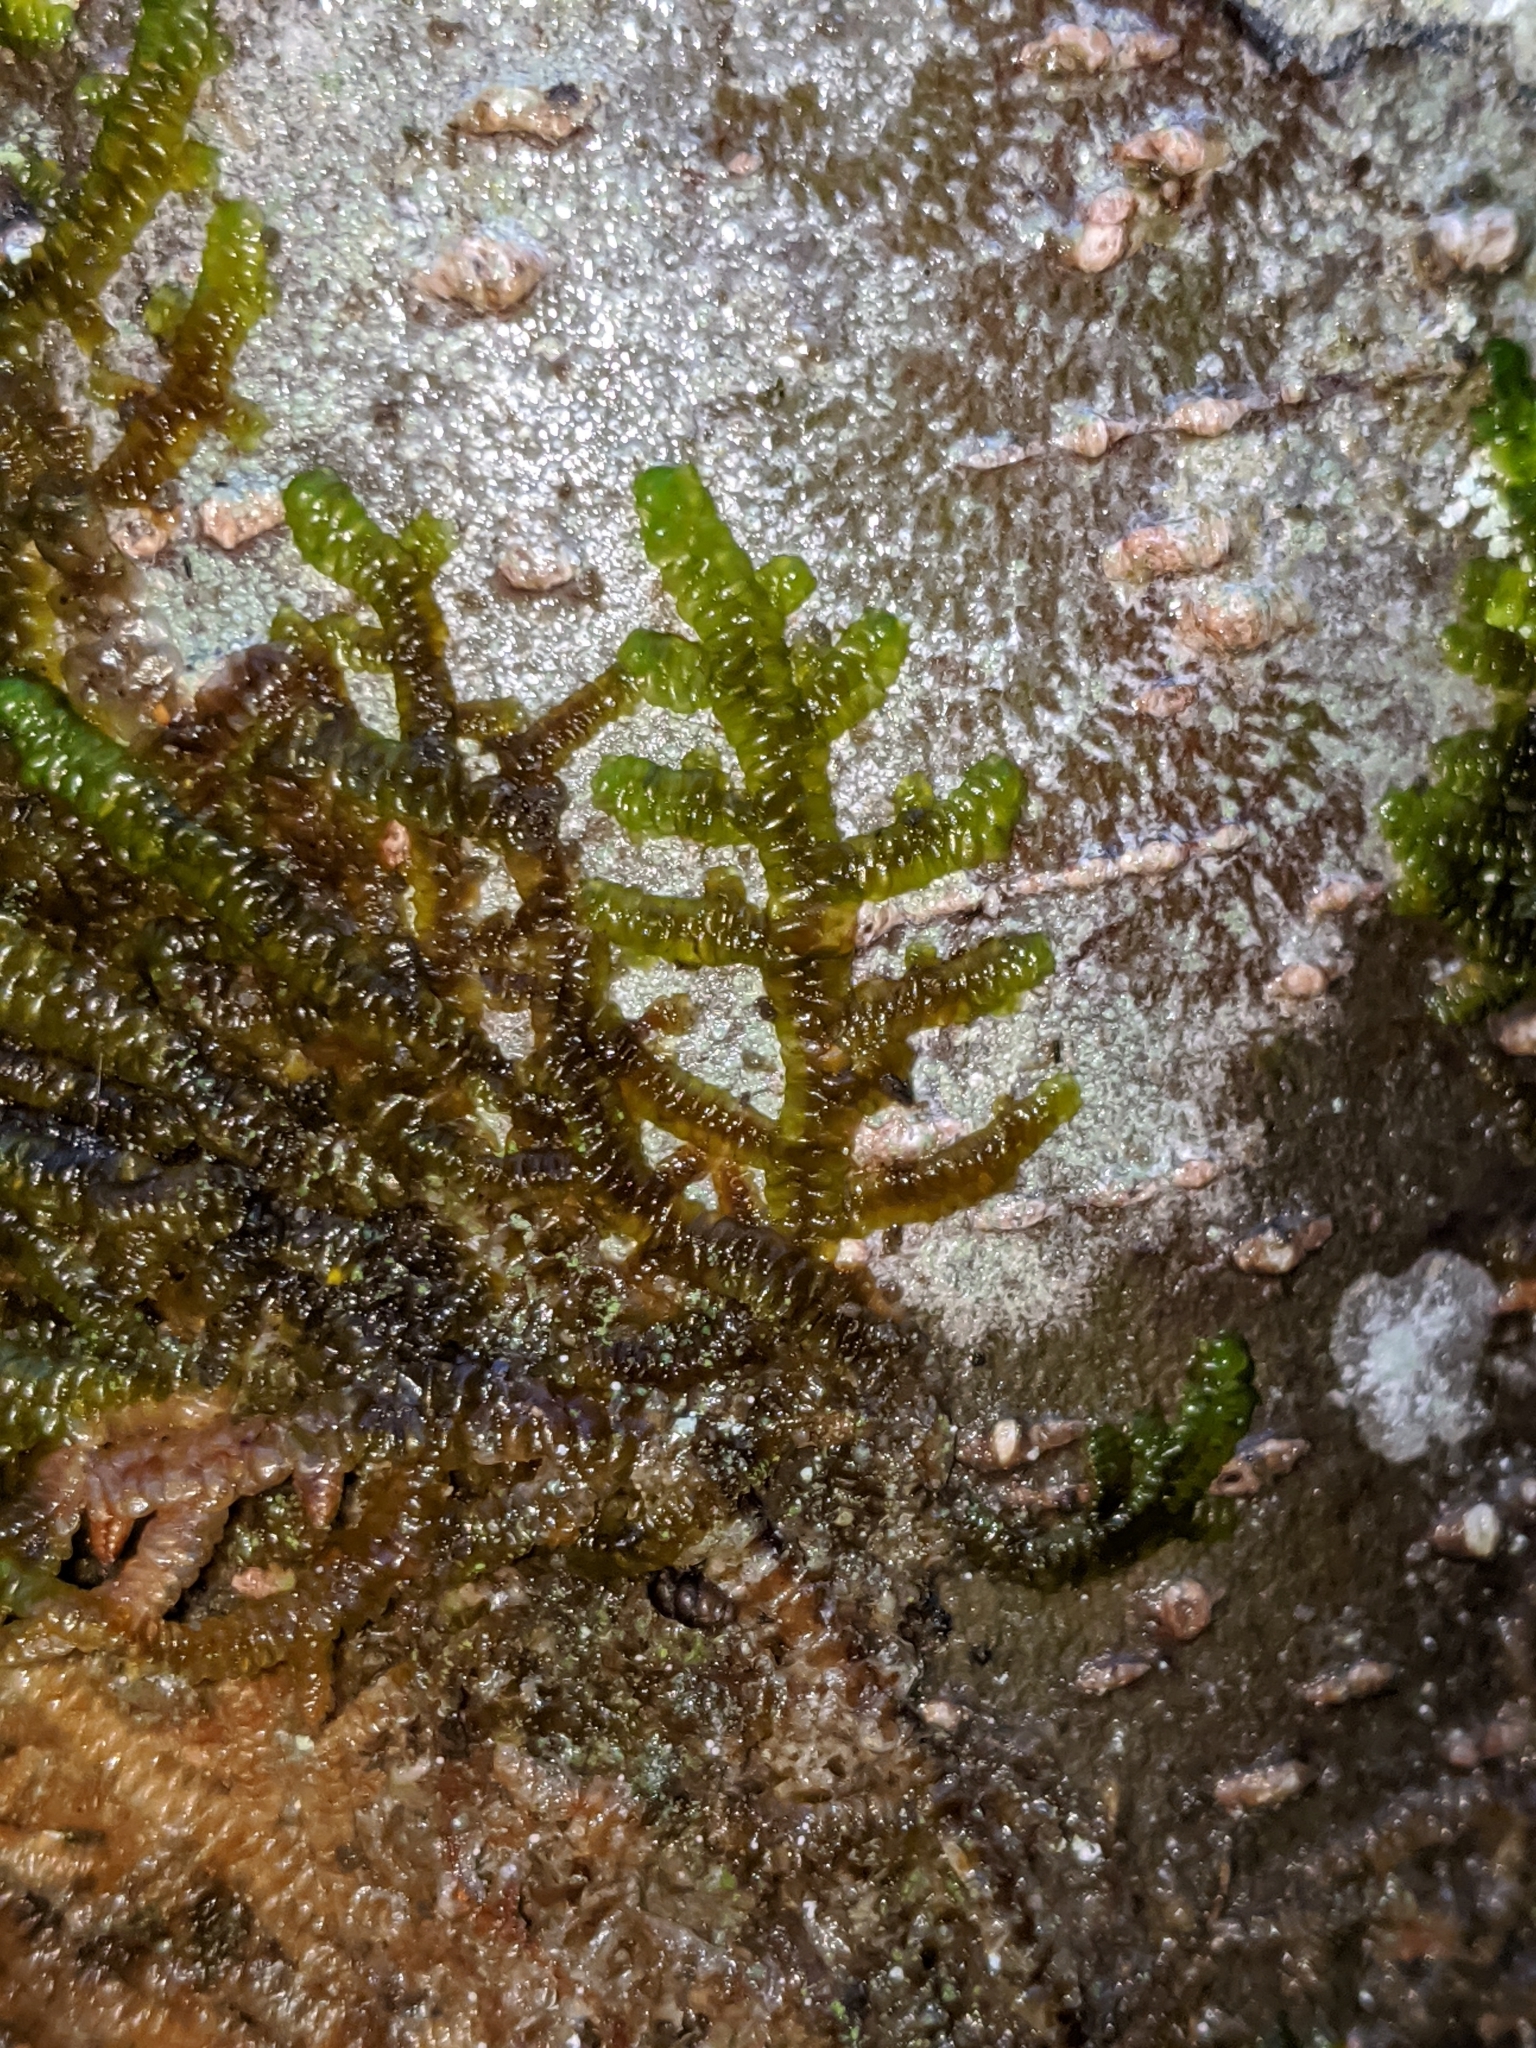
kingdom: Plantae
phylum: Marchantiophyta
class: Jungermanniopsida
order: Porellales
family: Porellaceae
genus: Porella
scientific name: Porella navicularis
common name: Tree ruffle liverwort
